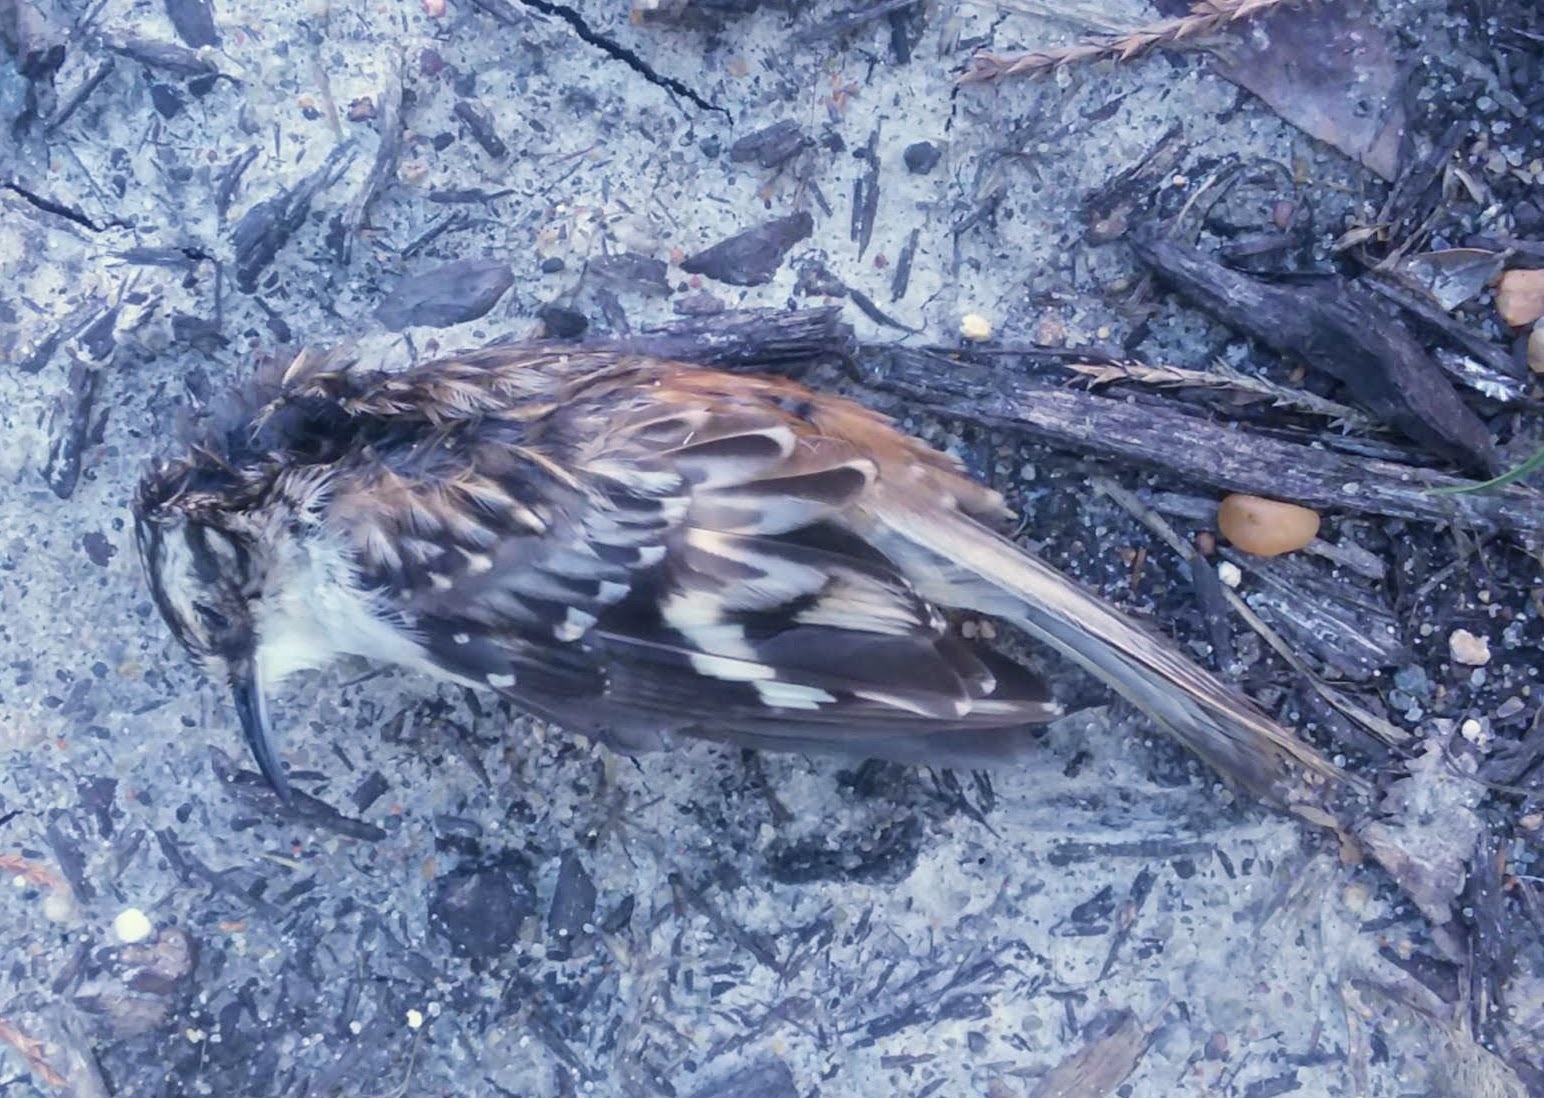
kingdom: Animalia
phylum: Chordata
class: Aves
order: Passeriformes
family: Certhiidae
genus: Certhia
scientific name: Certhia americana
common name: Brown creeper
